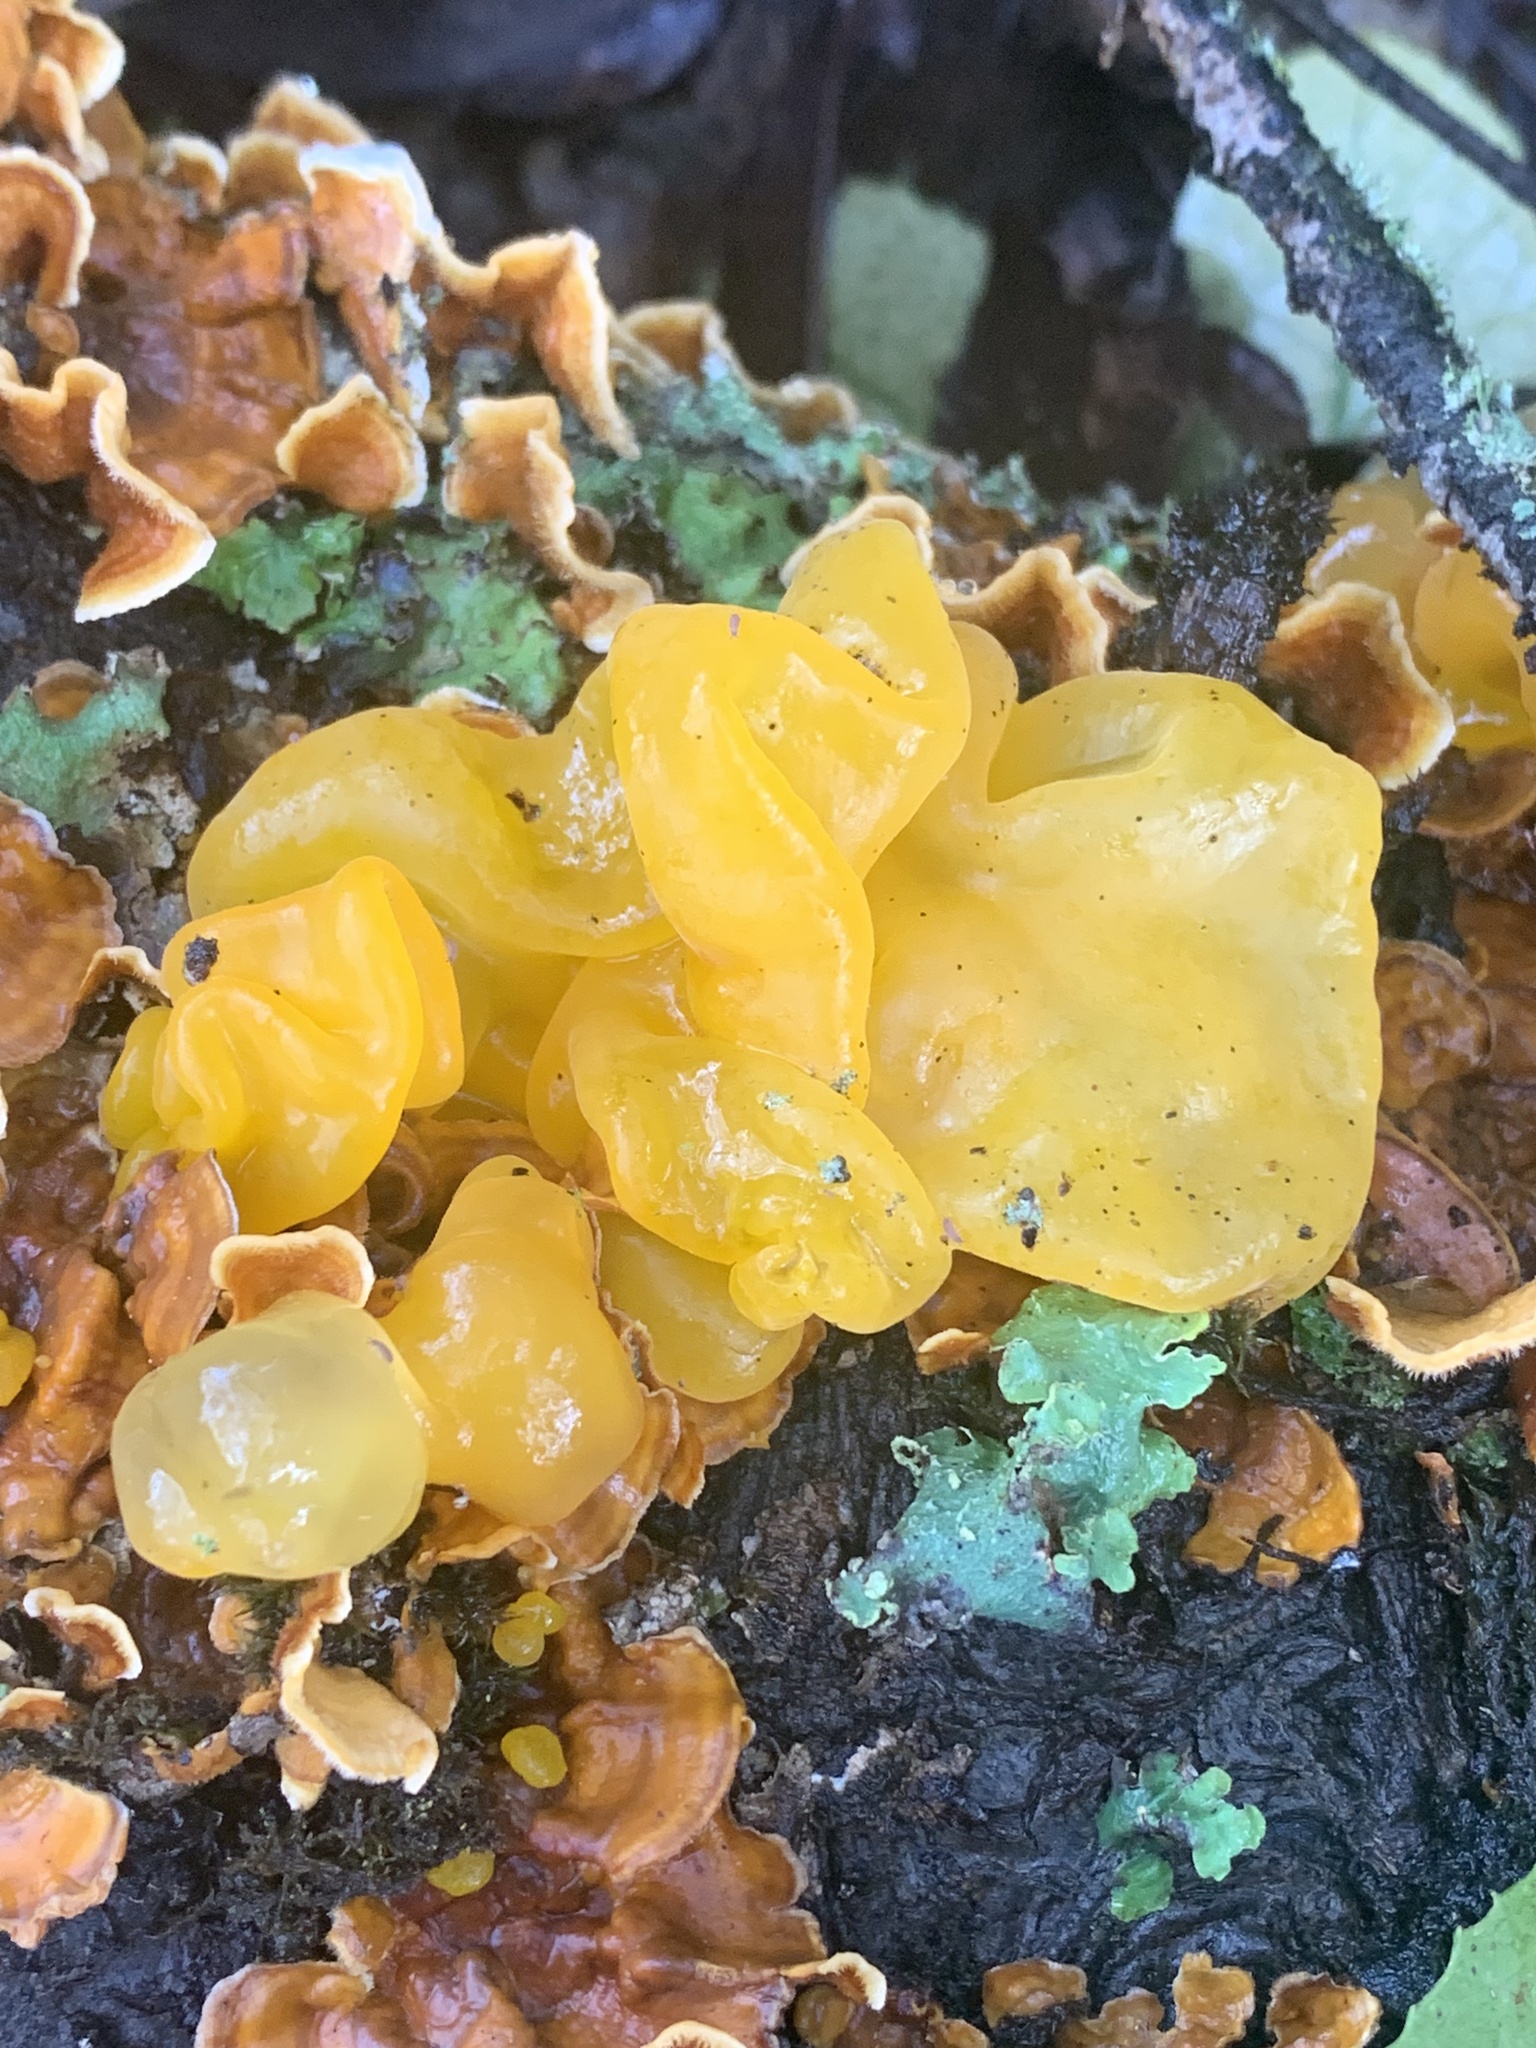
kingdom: Fungi
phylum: Basidiomycota
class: Tremellomycetes
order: Tremellales
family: Naemateliaceae
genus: Naematelia
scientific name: Naematelia aurantia
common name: Golden ear
